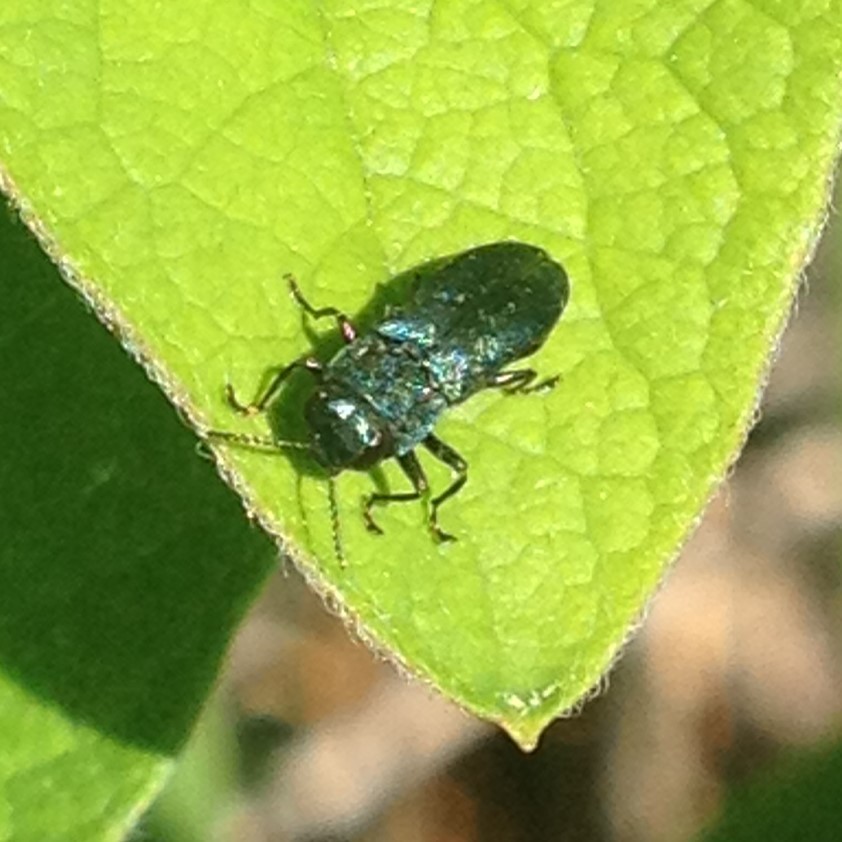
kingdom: Animalia
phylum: Arthropoda
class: Insecta
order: Coleoptera
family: Buprestidae
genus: Agrilus
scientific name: Agrilus cyanescens
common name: Bluish borer beetle
